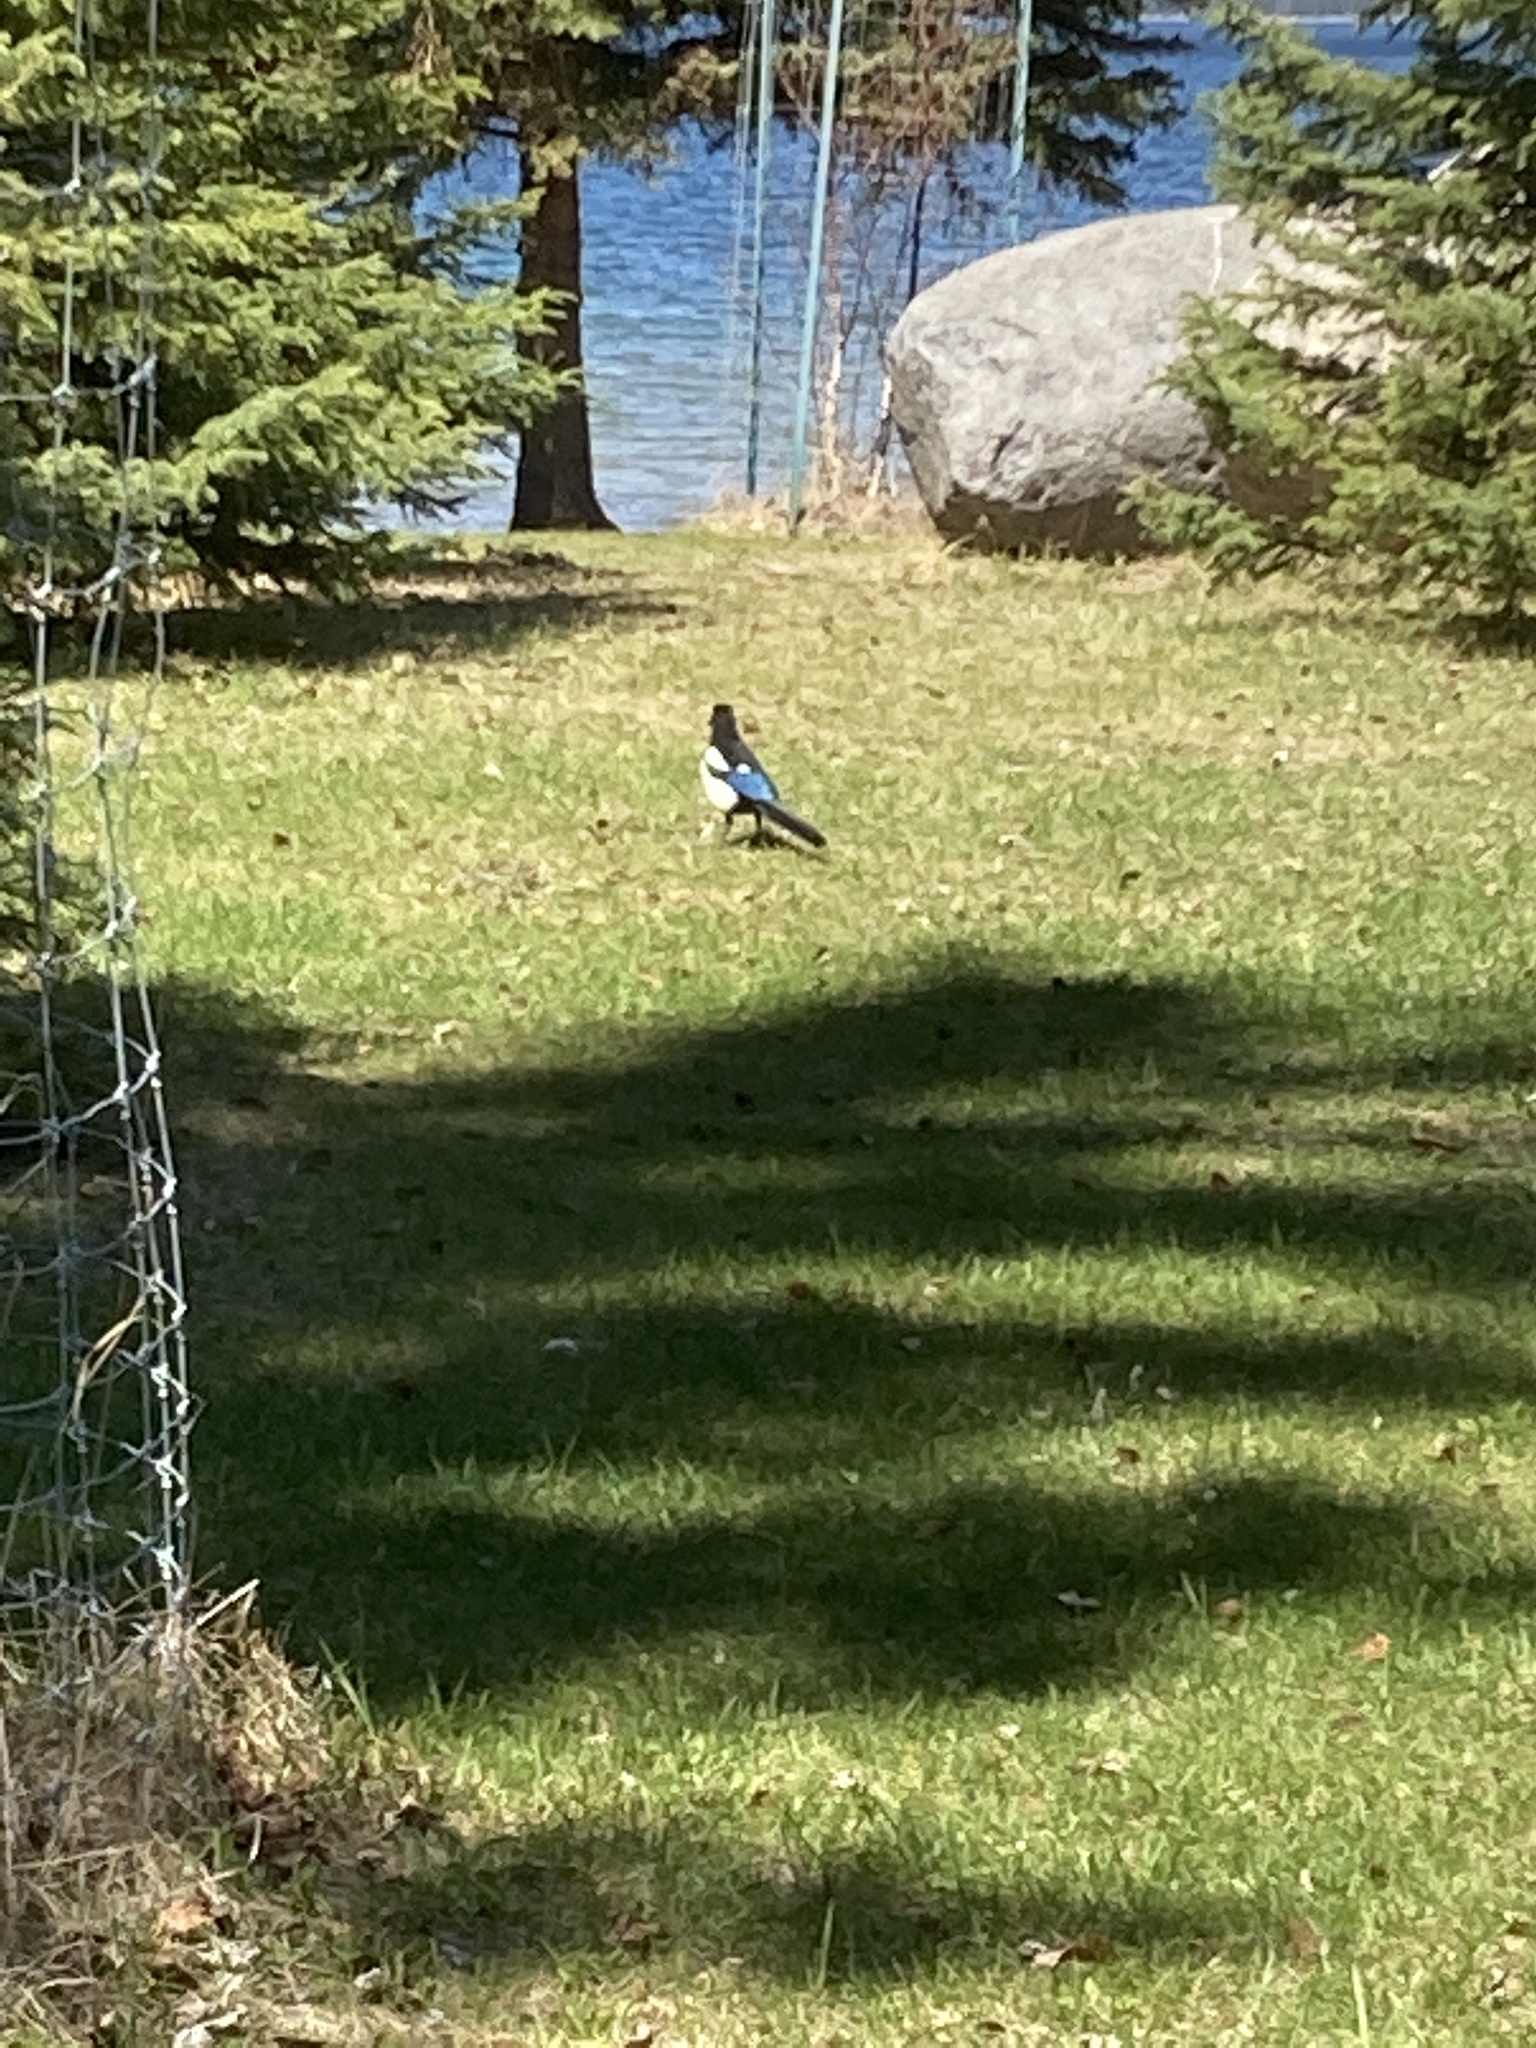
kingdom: Animalia
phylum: Chordata
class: Aves
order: Passeriformes
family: Corvidae
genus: Pica
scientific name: Pica hudsonia
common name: Black-billed magpie
